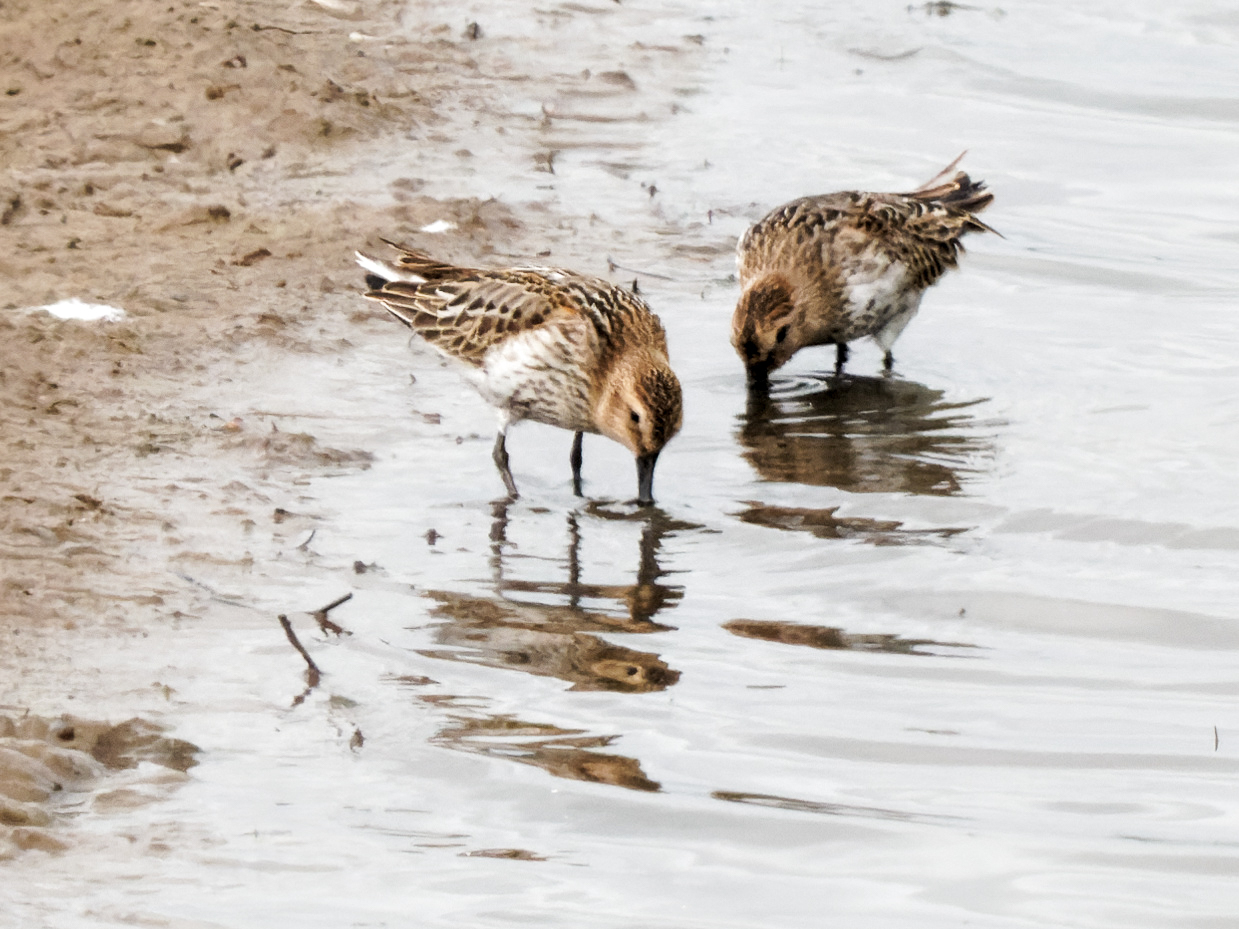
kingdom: Animalia
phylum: Chordata
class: Aves
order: Charadriiformes
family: Scolopacidae
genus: Calidris
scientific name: Calidris alpina
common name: Dunlin
